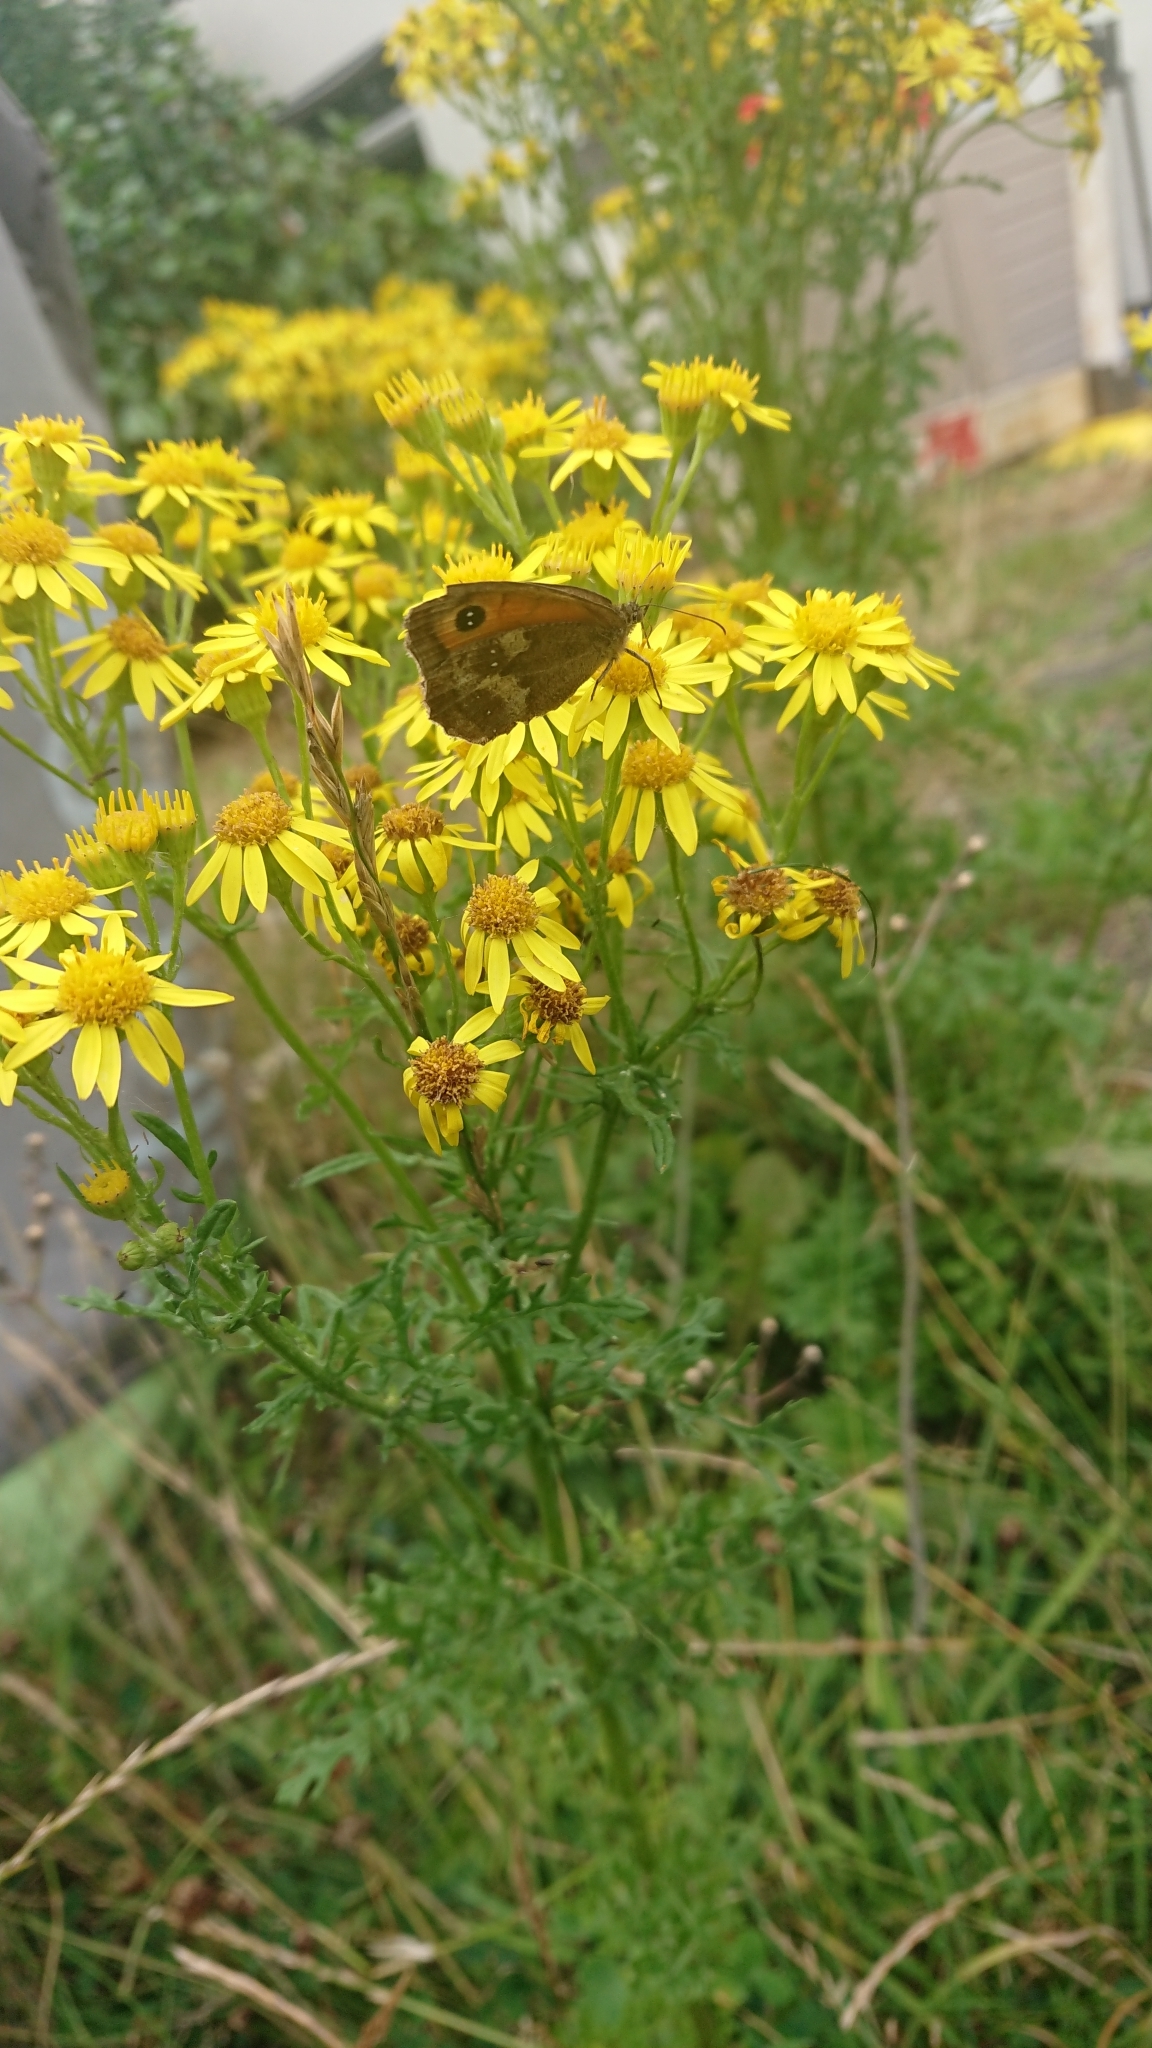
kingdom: Plantae
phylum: Tracheophyta
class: Magnoliopsida
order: Asterales
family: Asteraceae
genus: Jacobaea
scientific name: Jacobaea vulgaris
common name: Stinking willie
